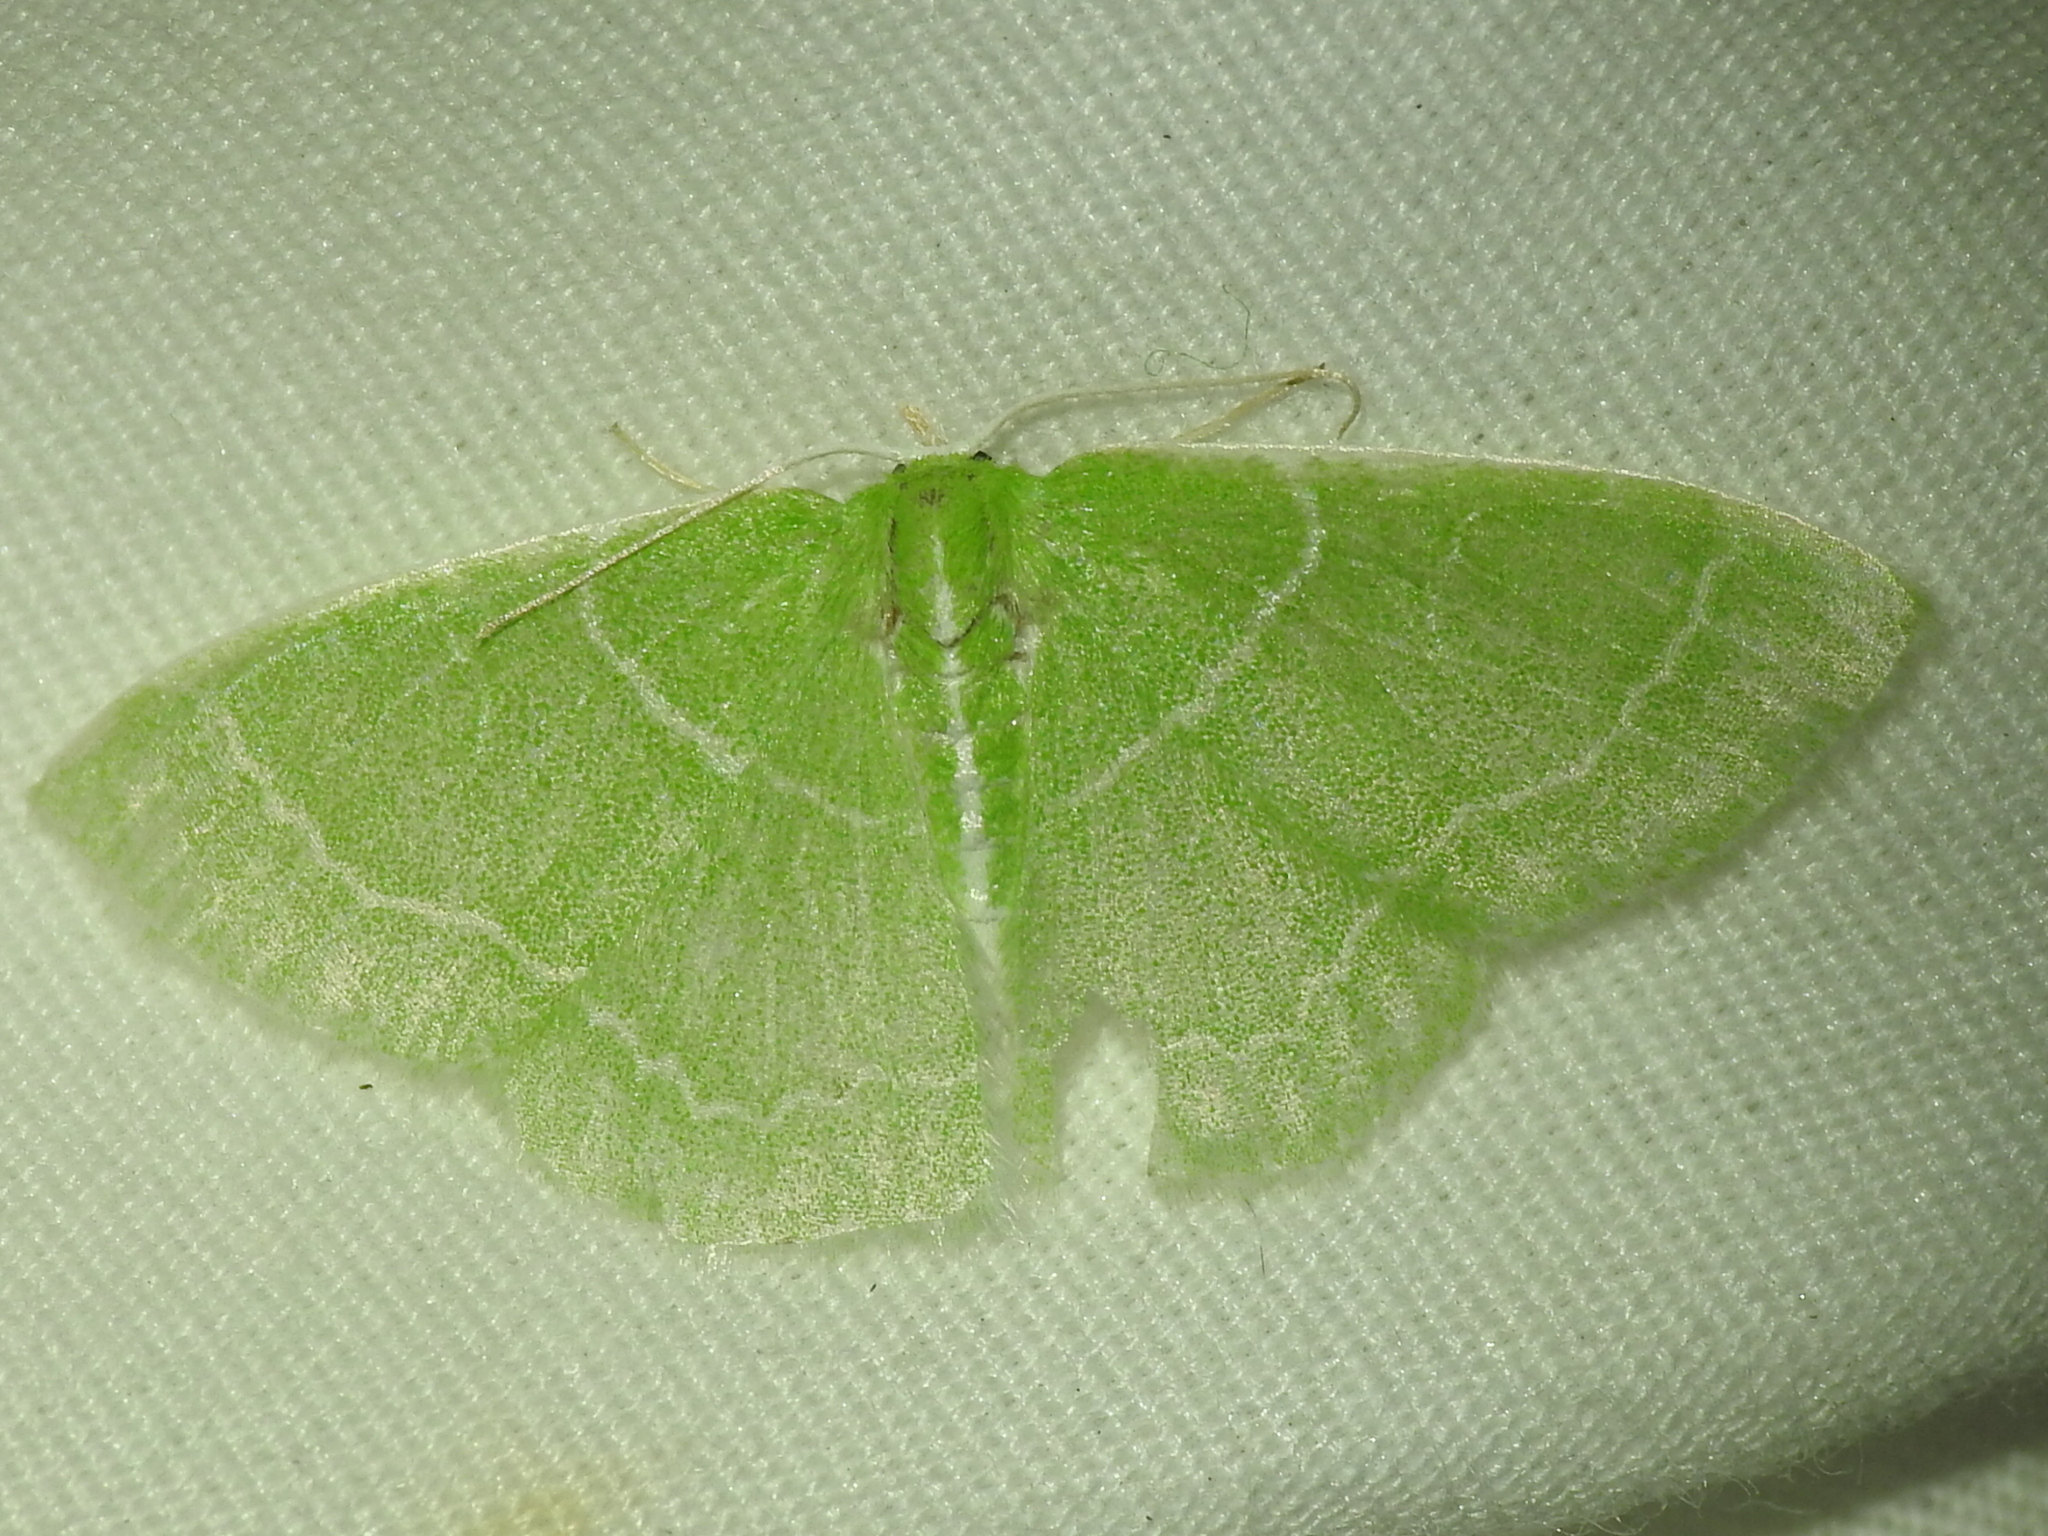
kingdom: Animalia
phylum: Arthropoda
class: Insecta
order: Lepidoptera
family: Geometridae
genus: Synchlora
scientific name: Synchlora aerata
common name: Wavy-lined emerald
